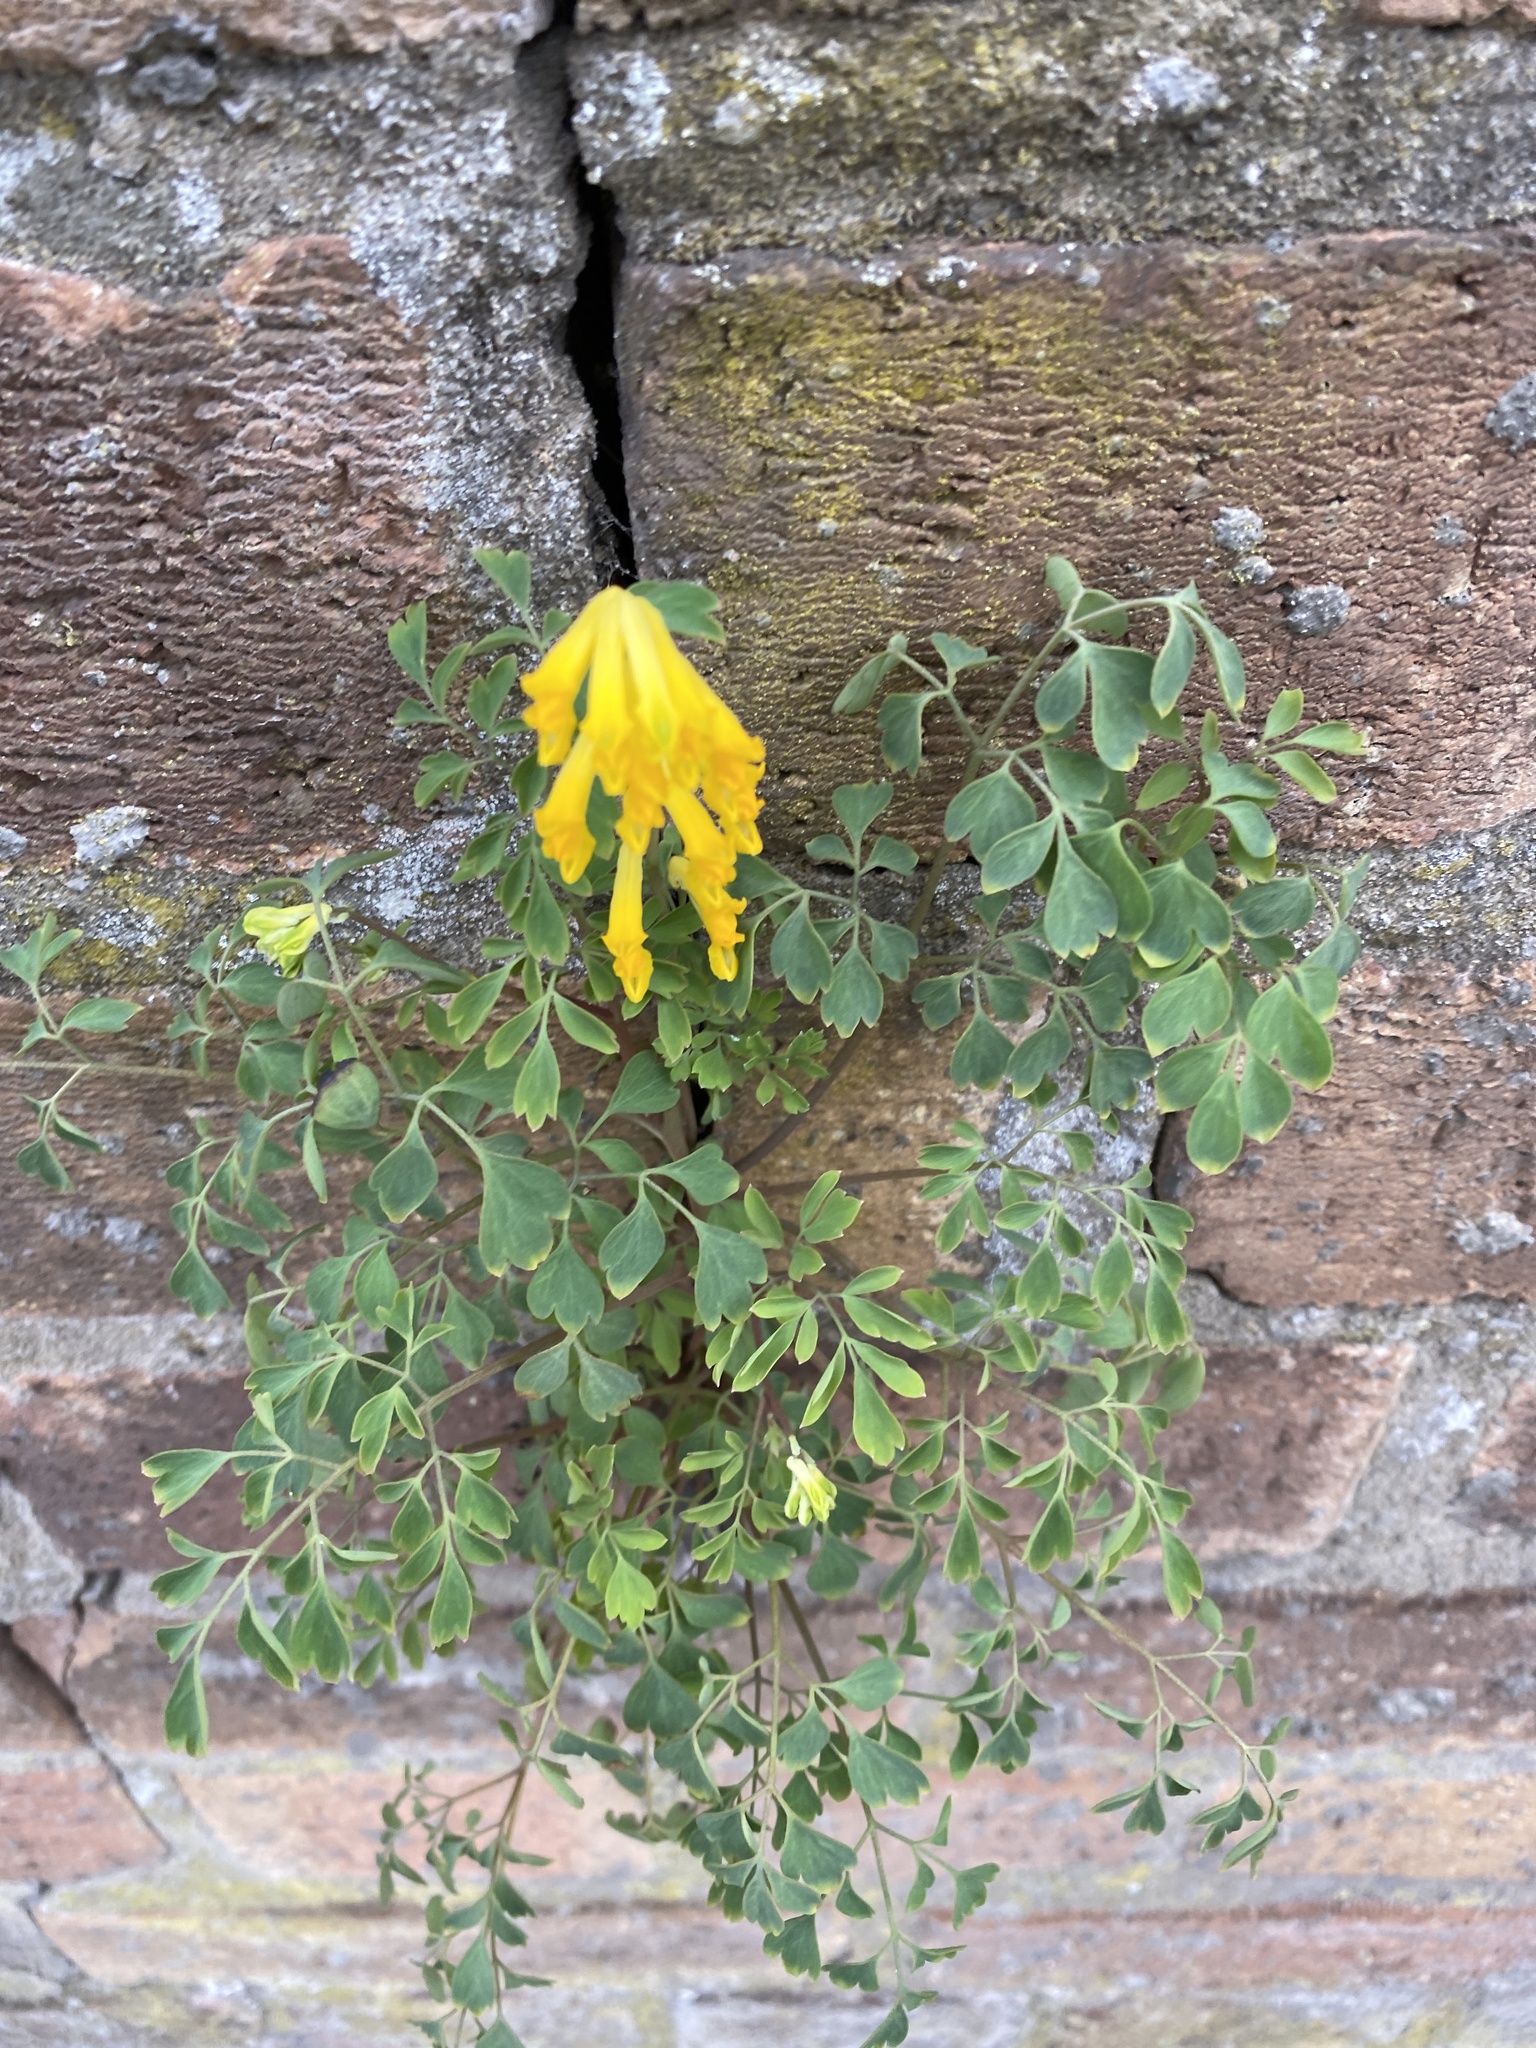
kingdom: Plantae
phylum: Tracheophyta
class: Magnoliopsida
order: Ranunculales
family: Papaveraceae
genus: Pseudofumaria
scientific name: Pseudofumaria lutea
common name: Yellow corydalis
